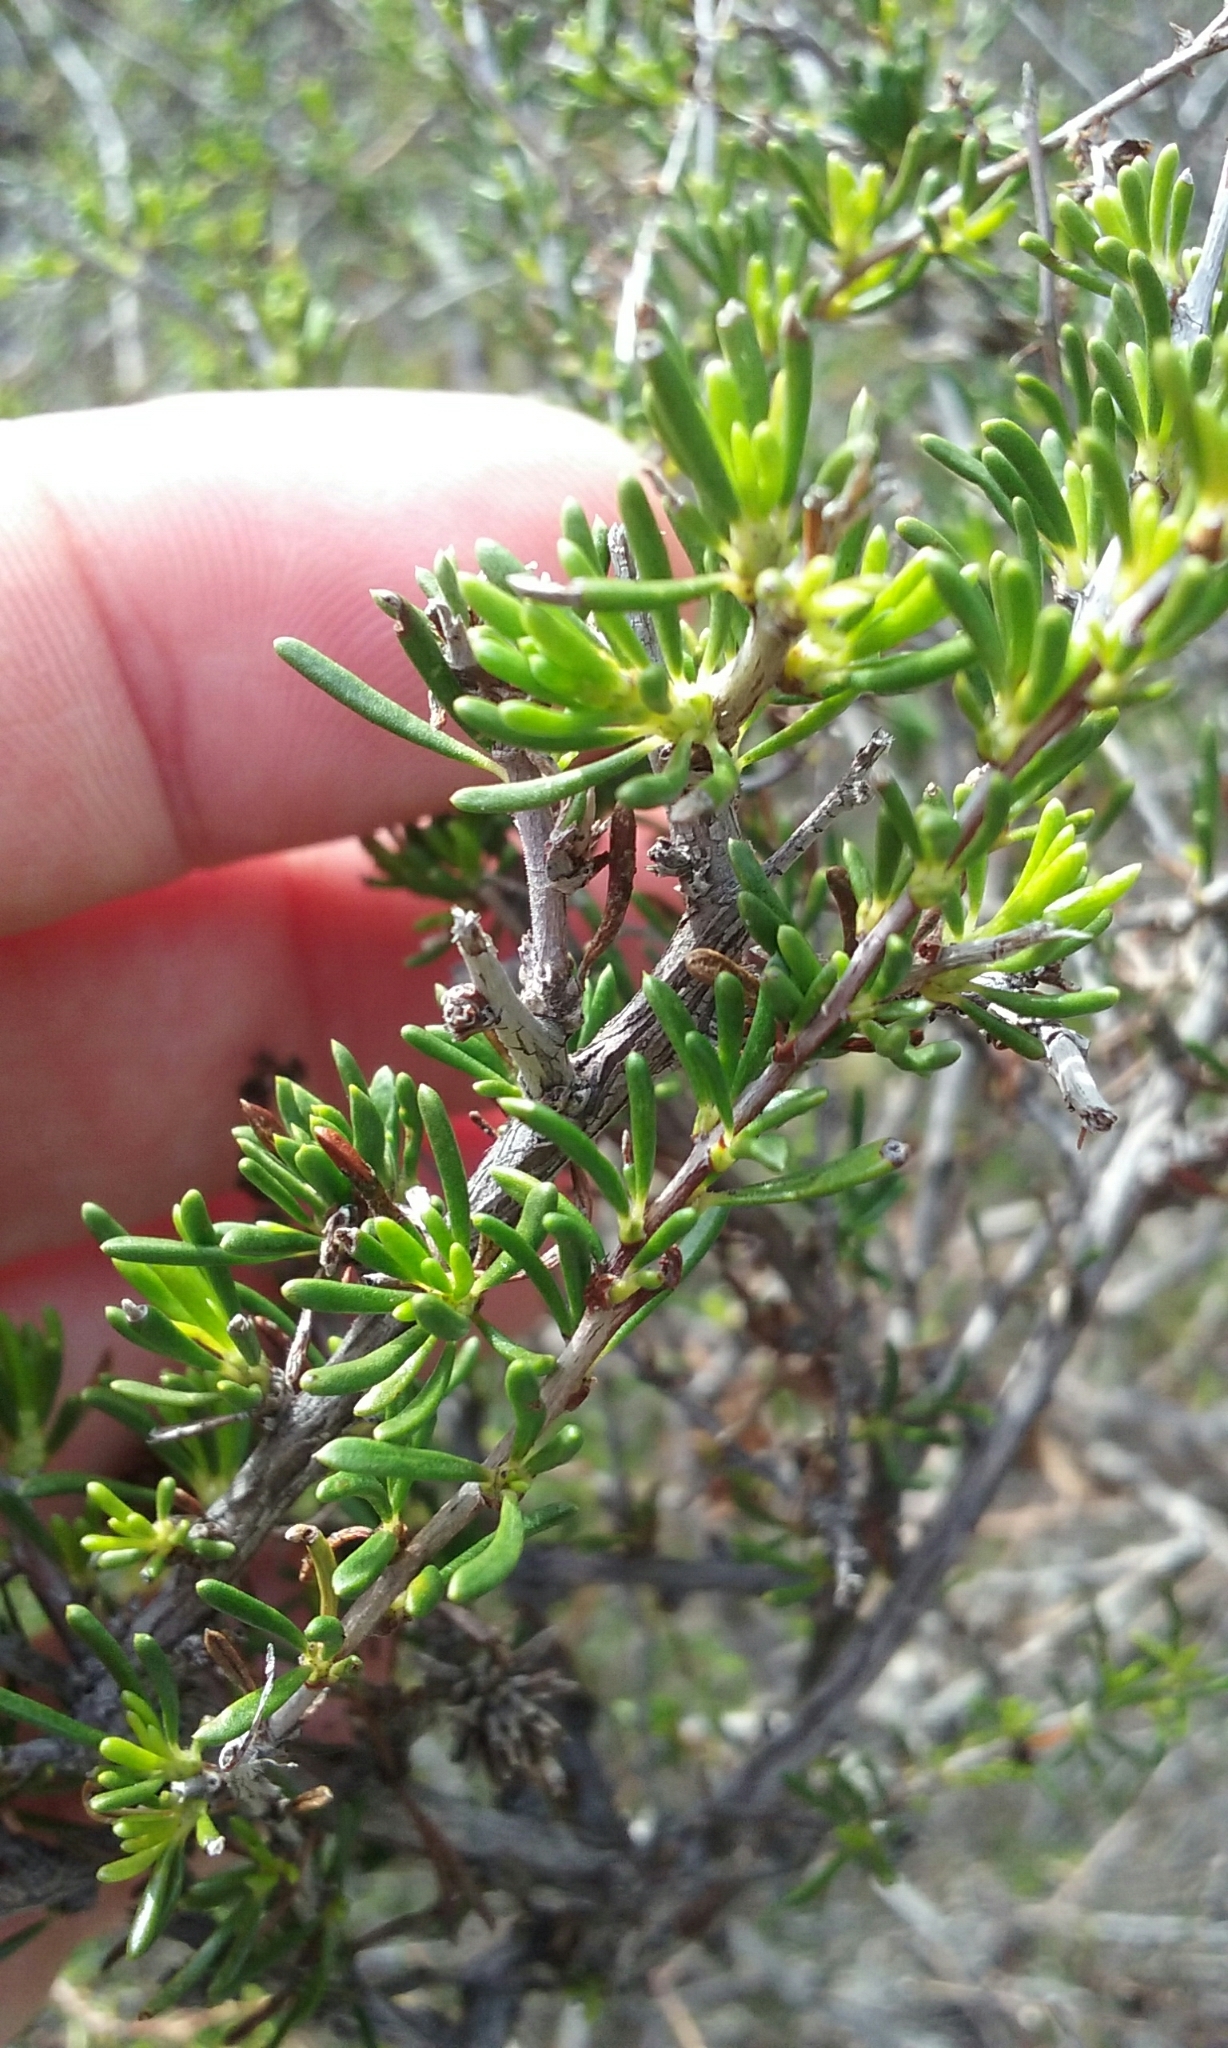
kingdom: Plantae
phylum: Tracheophyta
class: Magnoliopsida
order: Rosales
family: Rosaceae
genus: Adenostoma
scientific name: Adenostoma fasciculatum
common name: Chamise
